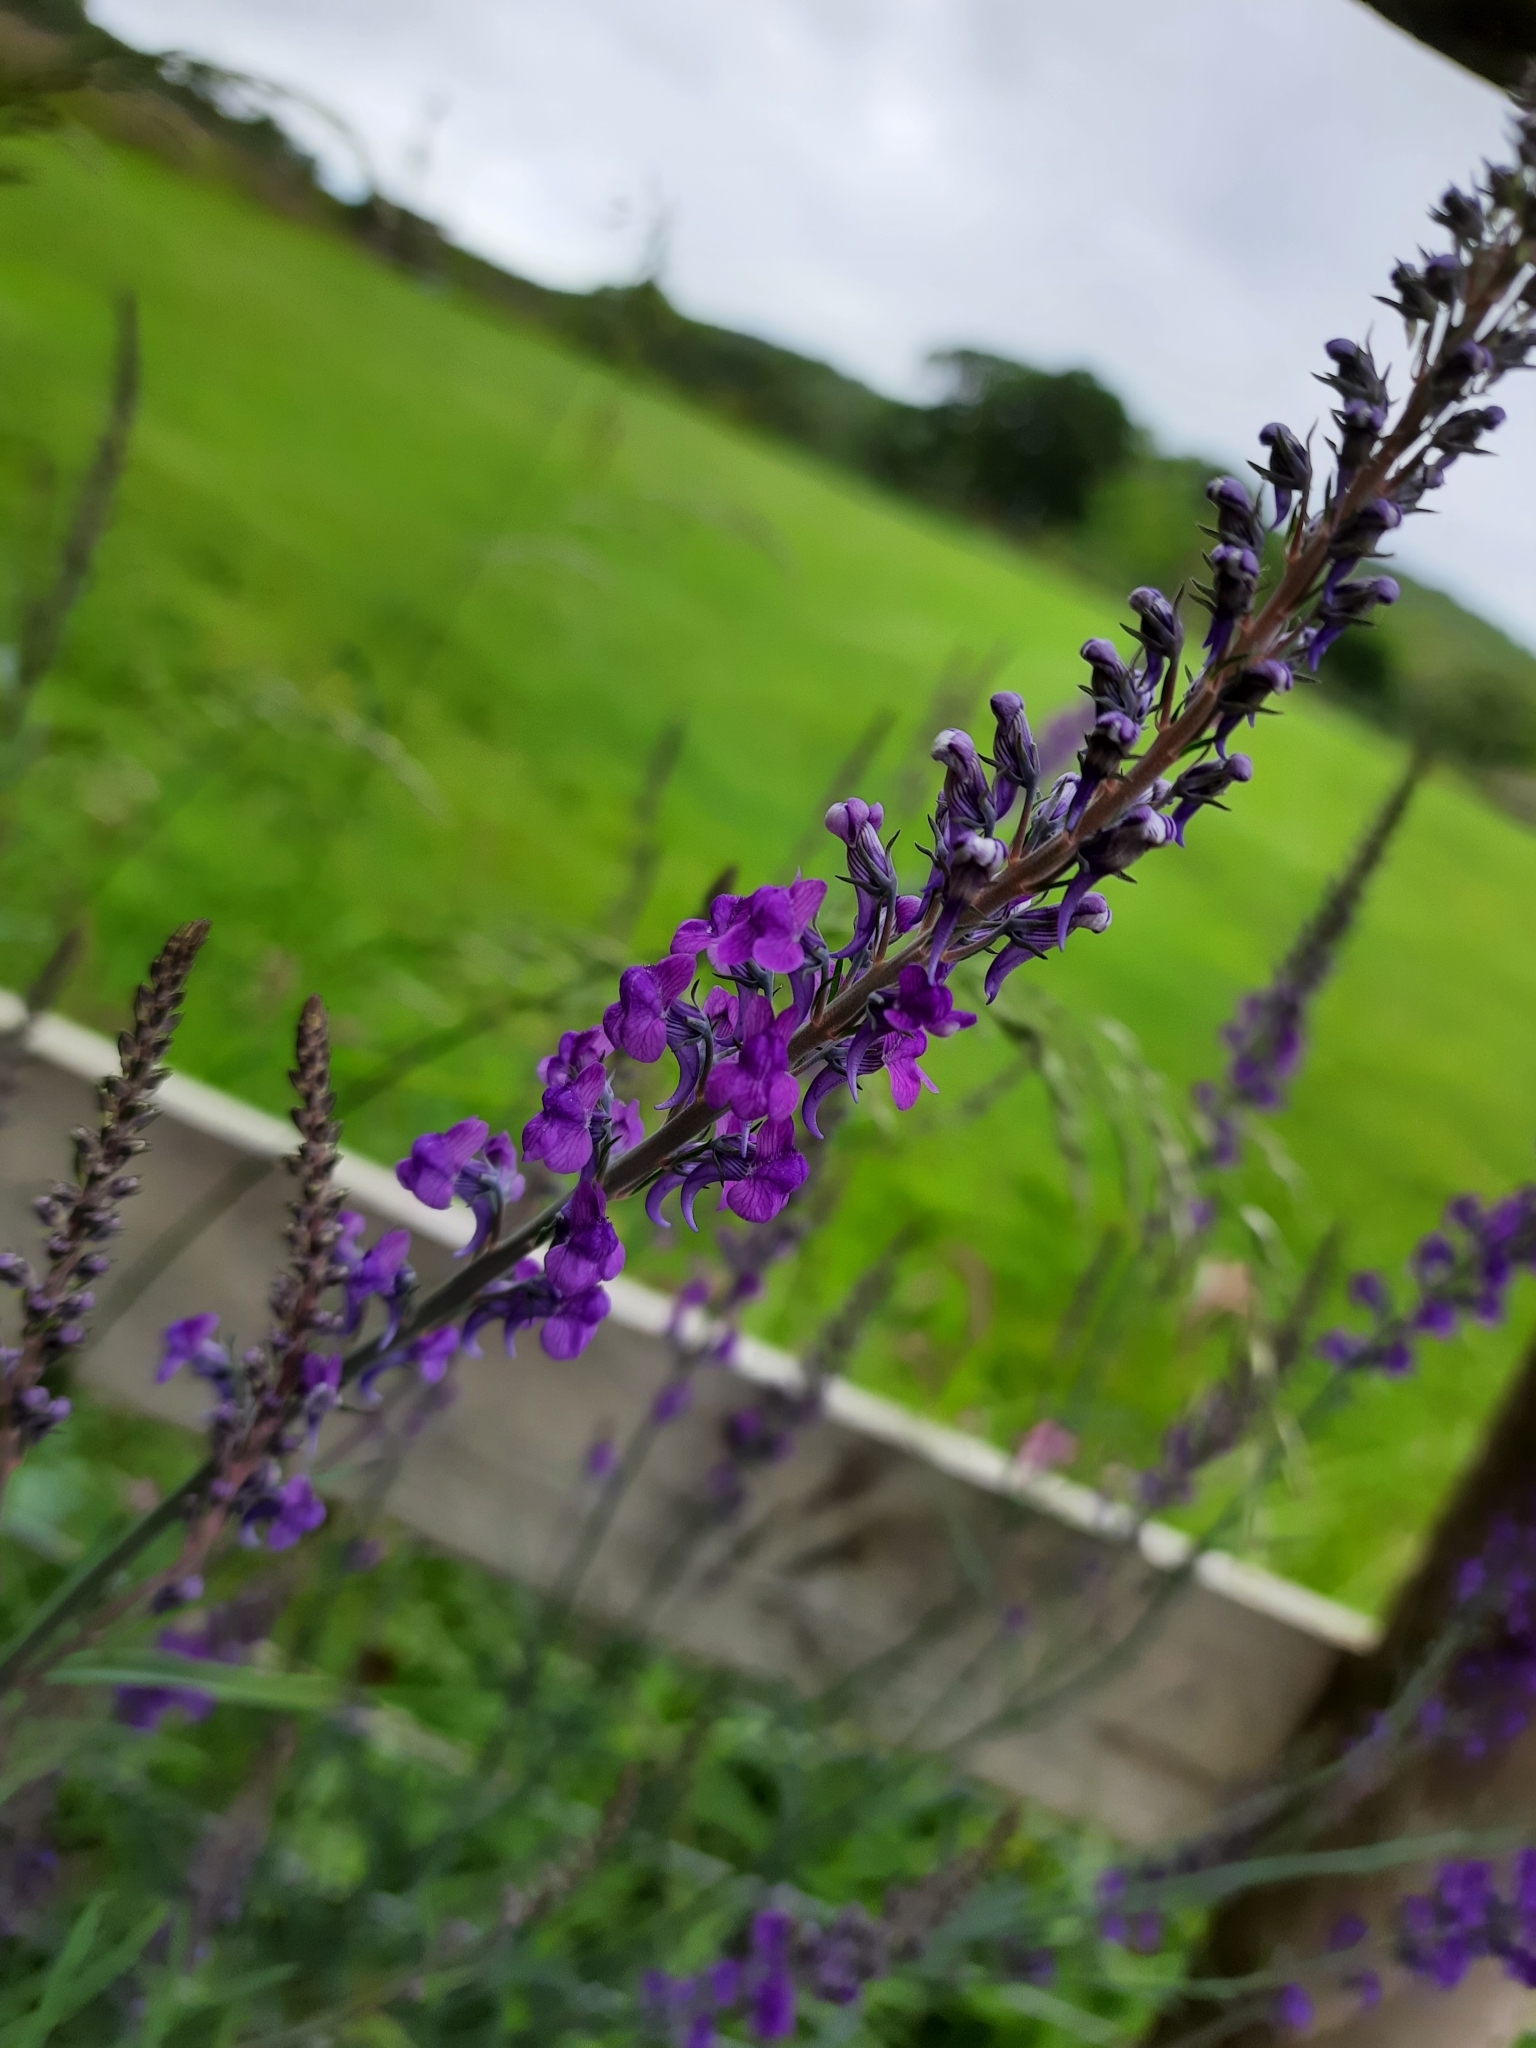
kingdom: Plantae
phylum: Tracheophyta
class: Magnoliopsida
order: Lamiales
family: Plantaginaceae
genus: Linaria
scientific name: Linaria purpurea
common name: Purple toadflax
